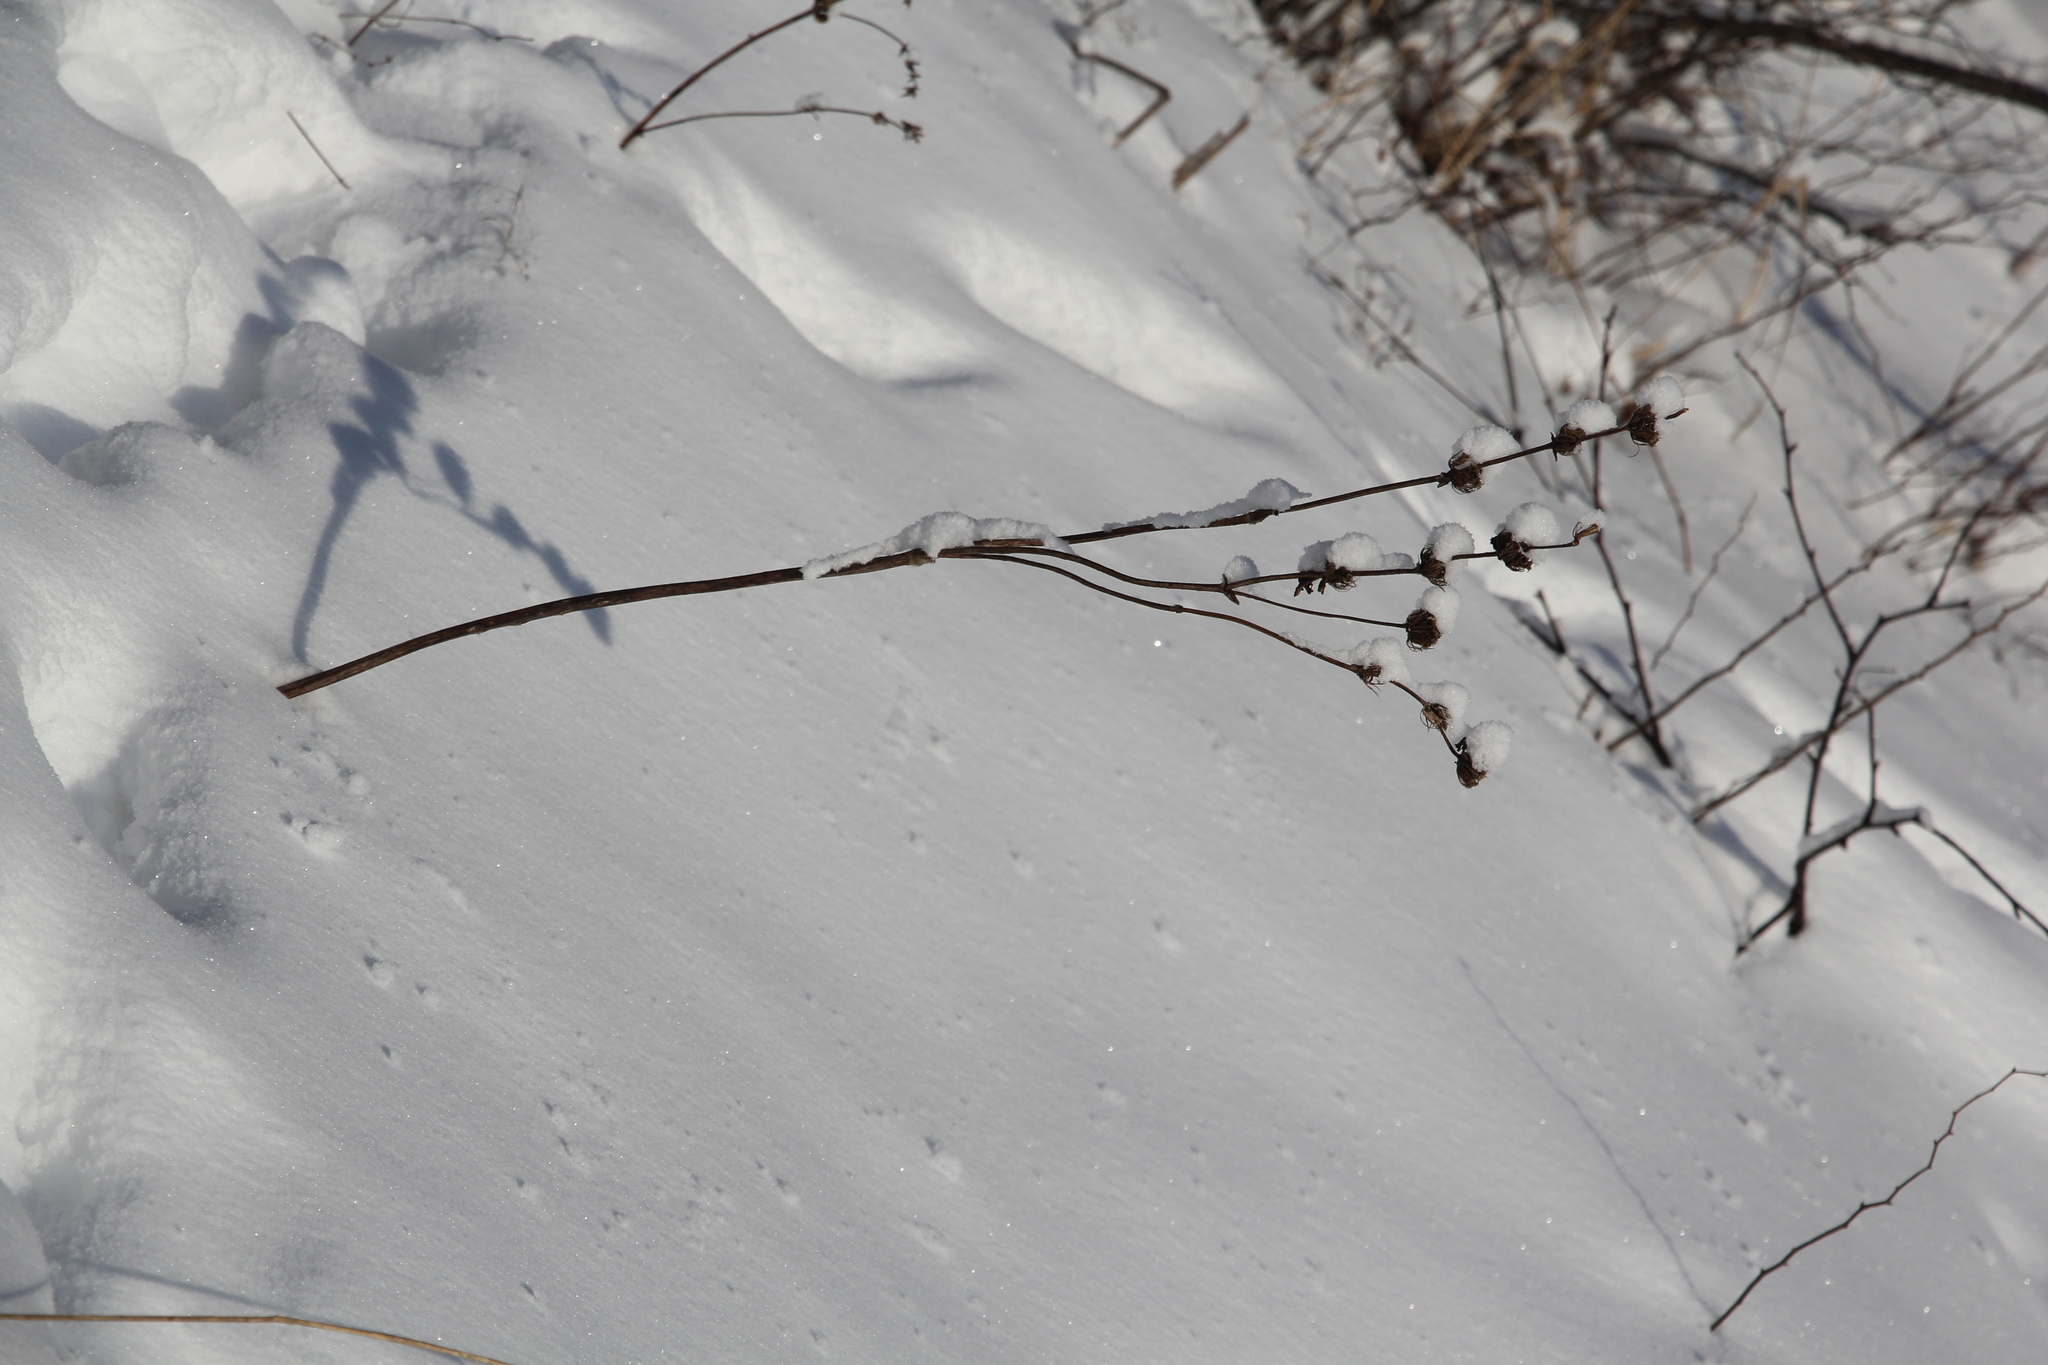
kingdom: Plantae
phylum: Tracheophyta
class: Magnoliopsida
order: Lamiales
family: Lamiaceae
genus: Phlomoides
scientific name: Phlomoides tuberosa
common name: Tuberous jerusalem sage
